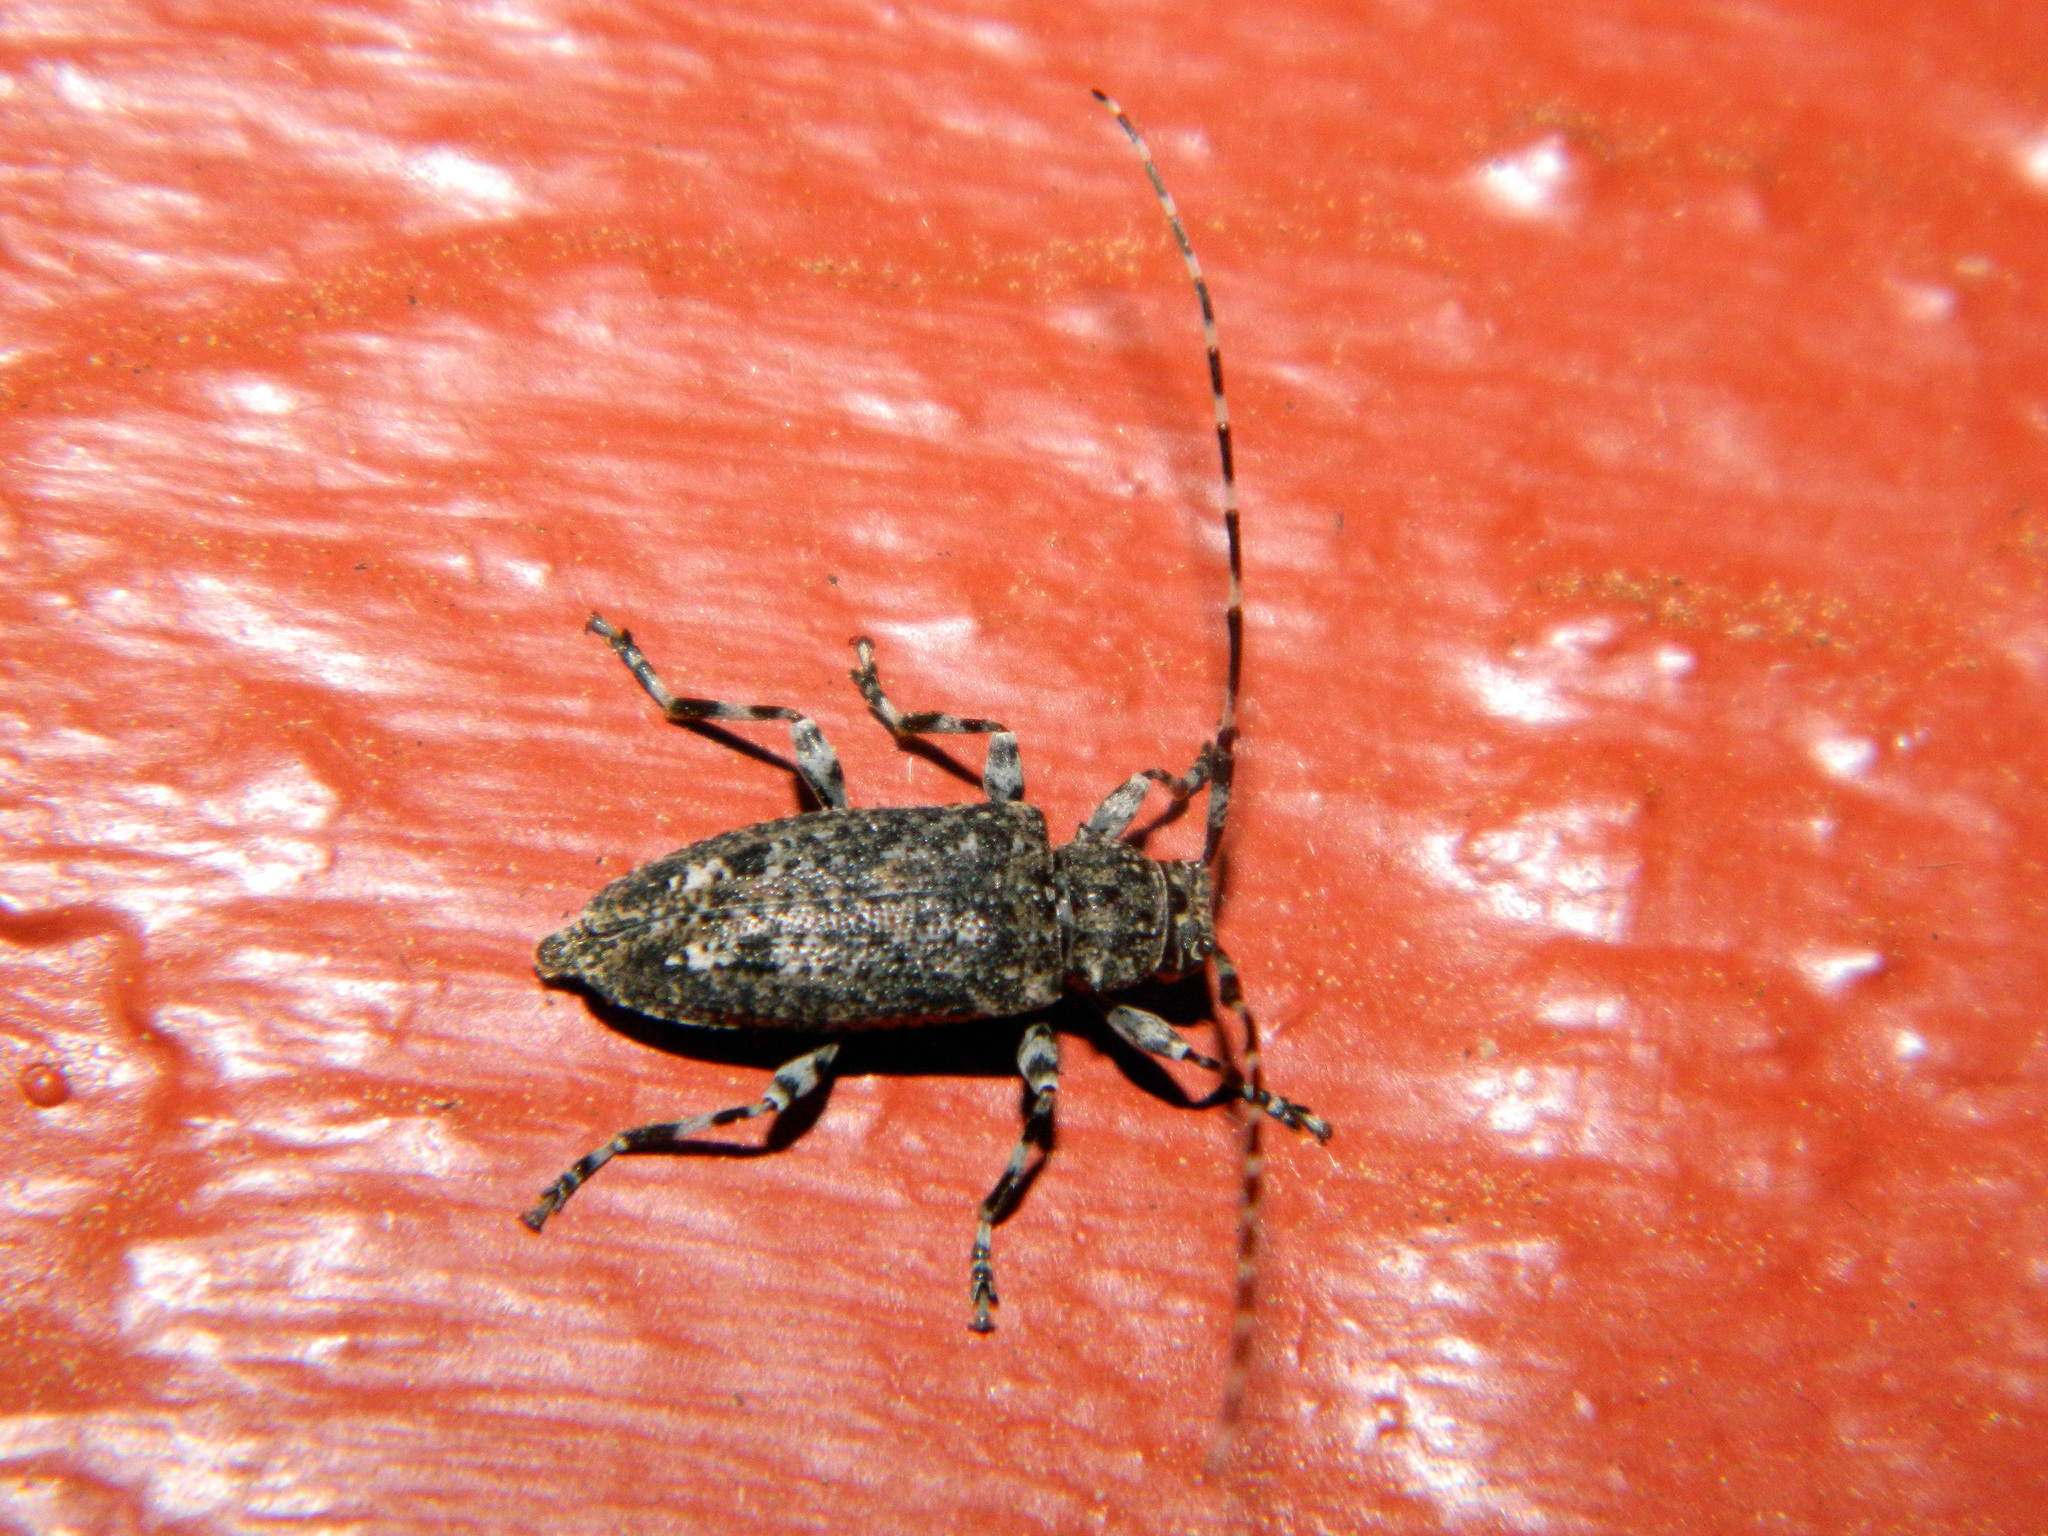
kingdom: Animalia
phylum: Arthropoda
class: Insecta
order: Coleoptera
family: Cerambycidae
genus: Astyleiopus
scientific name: Astyleiopus variegatus
